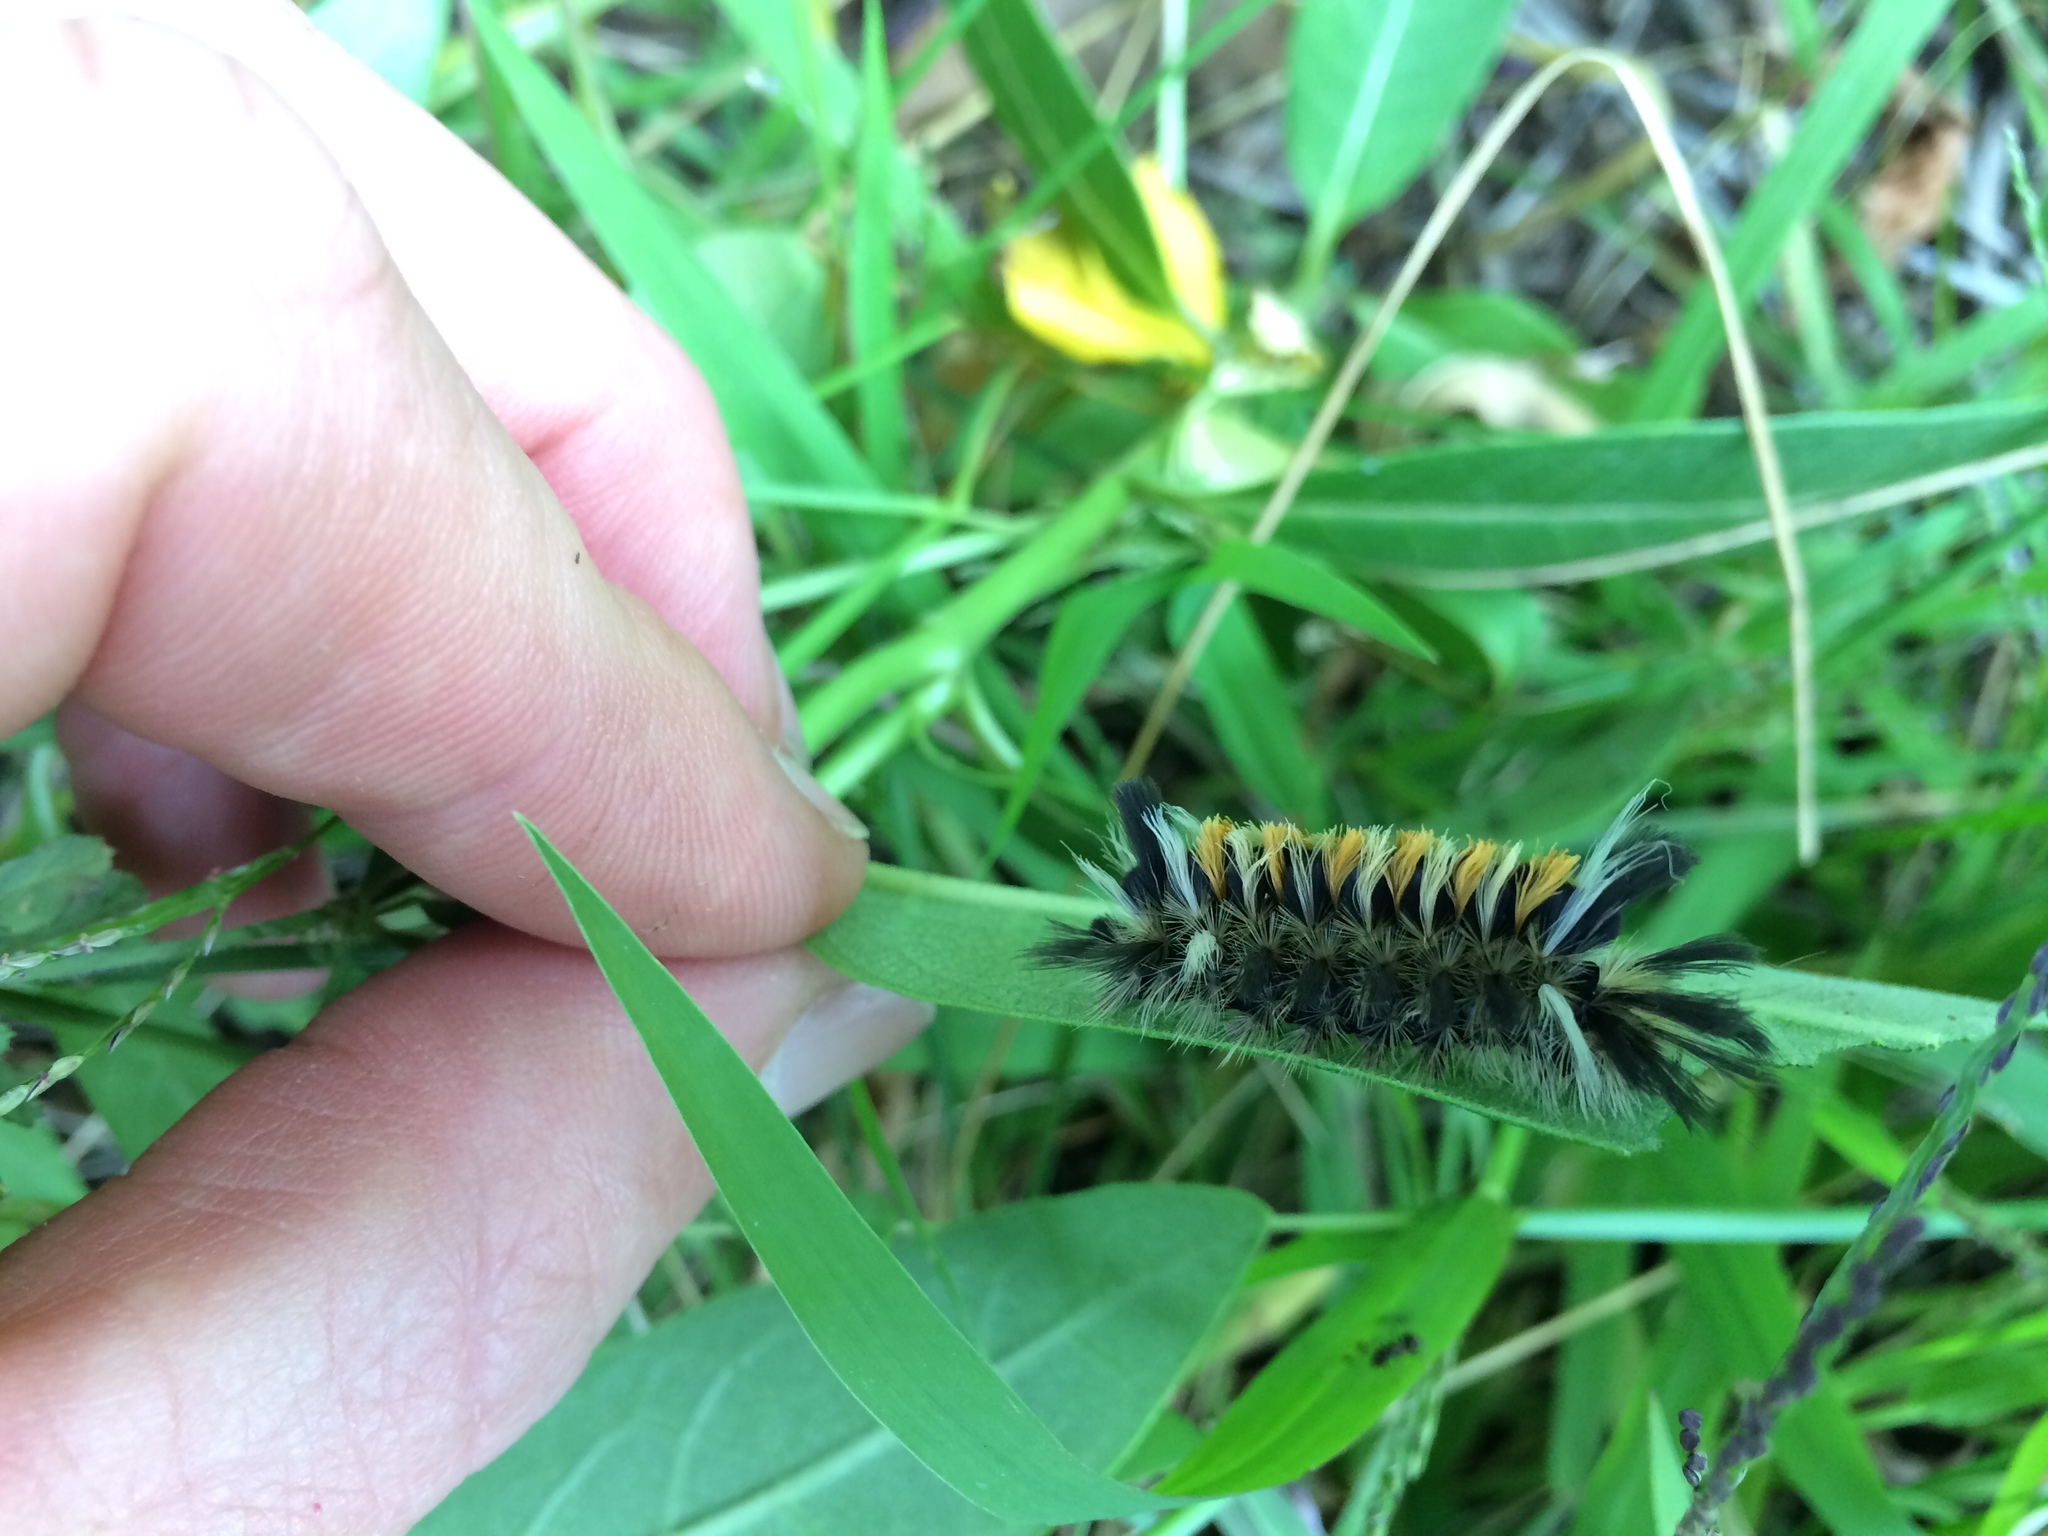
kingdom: Animalia
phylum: Arthropoda
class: Insecta
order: Lepidoptera
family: Erebidae
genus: Euchaetes
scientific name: Euchaetes egle
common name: Milkweed tussock moth
